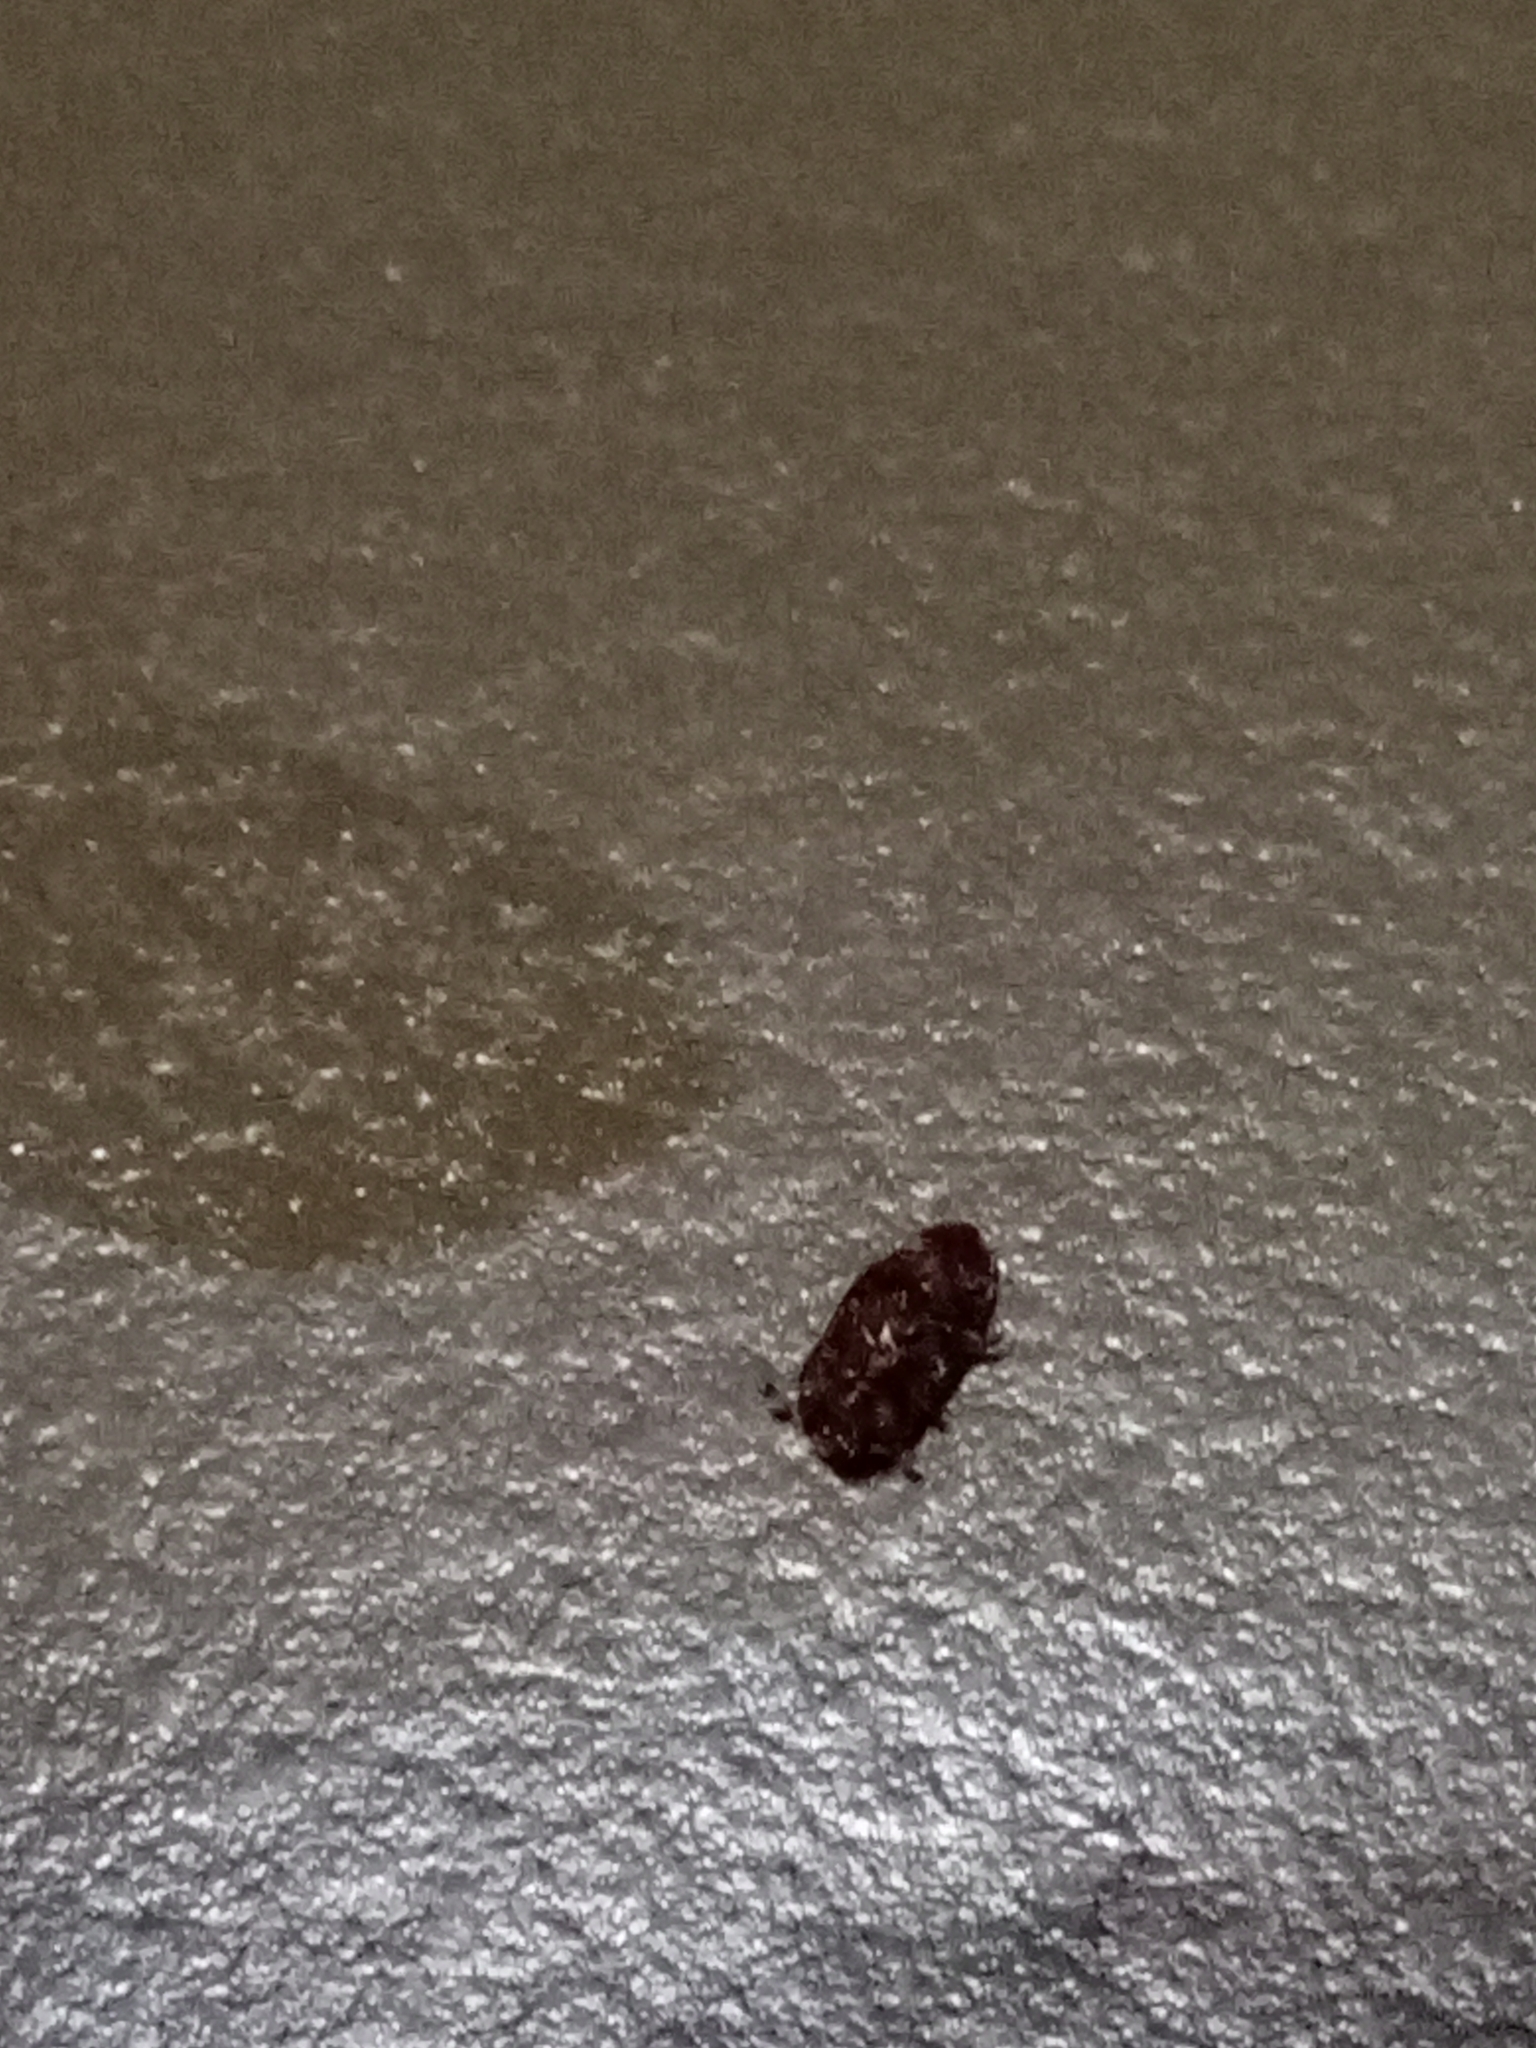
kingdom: Animalia
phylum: Arthropoda
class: Insecta
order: Coleoptera
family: Nitidulidae
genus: Carpophilus
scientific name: Carpophilus hemipterus
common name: Dried fruit beetle
